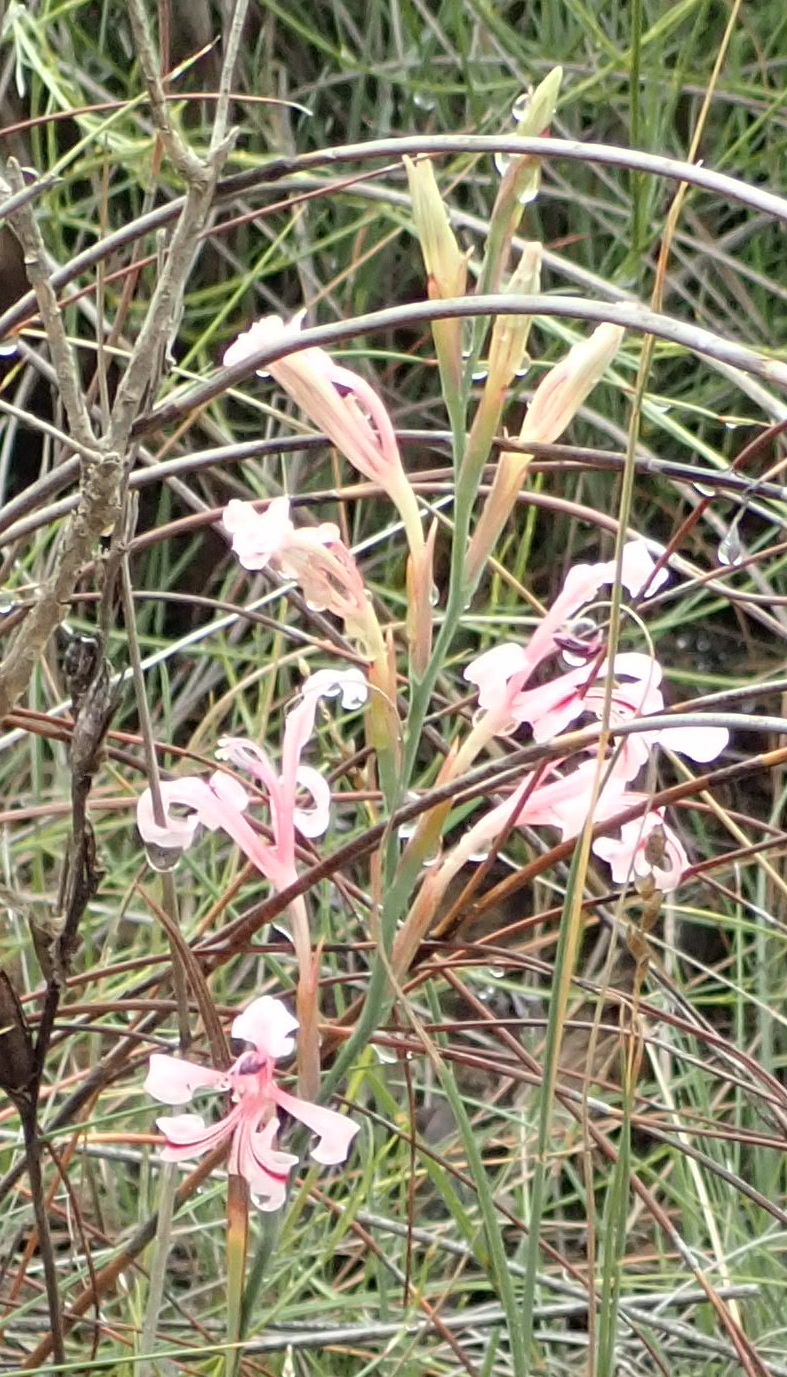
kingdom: Plantae
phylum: Tracheophyta
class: Liliopsida
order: Asparagales
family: Iridaceae
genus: Tritoniopsis
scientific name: Tritoniopsis revoluta
